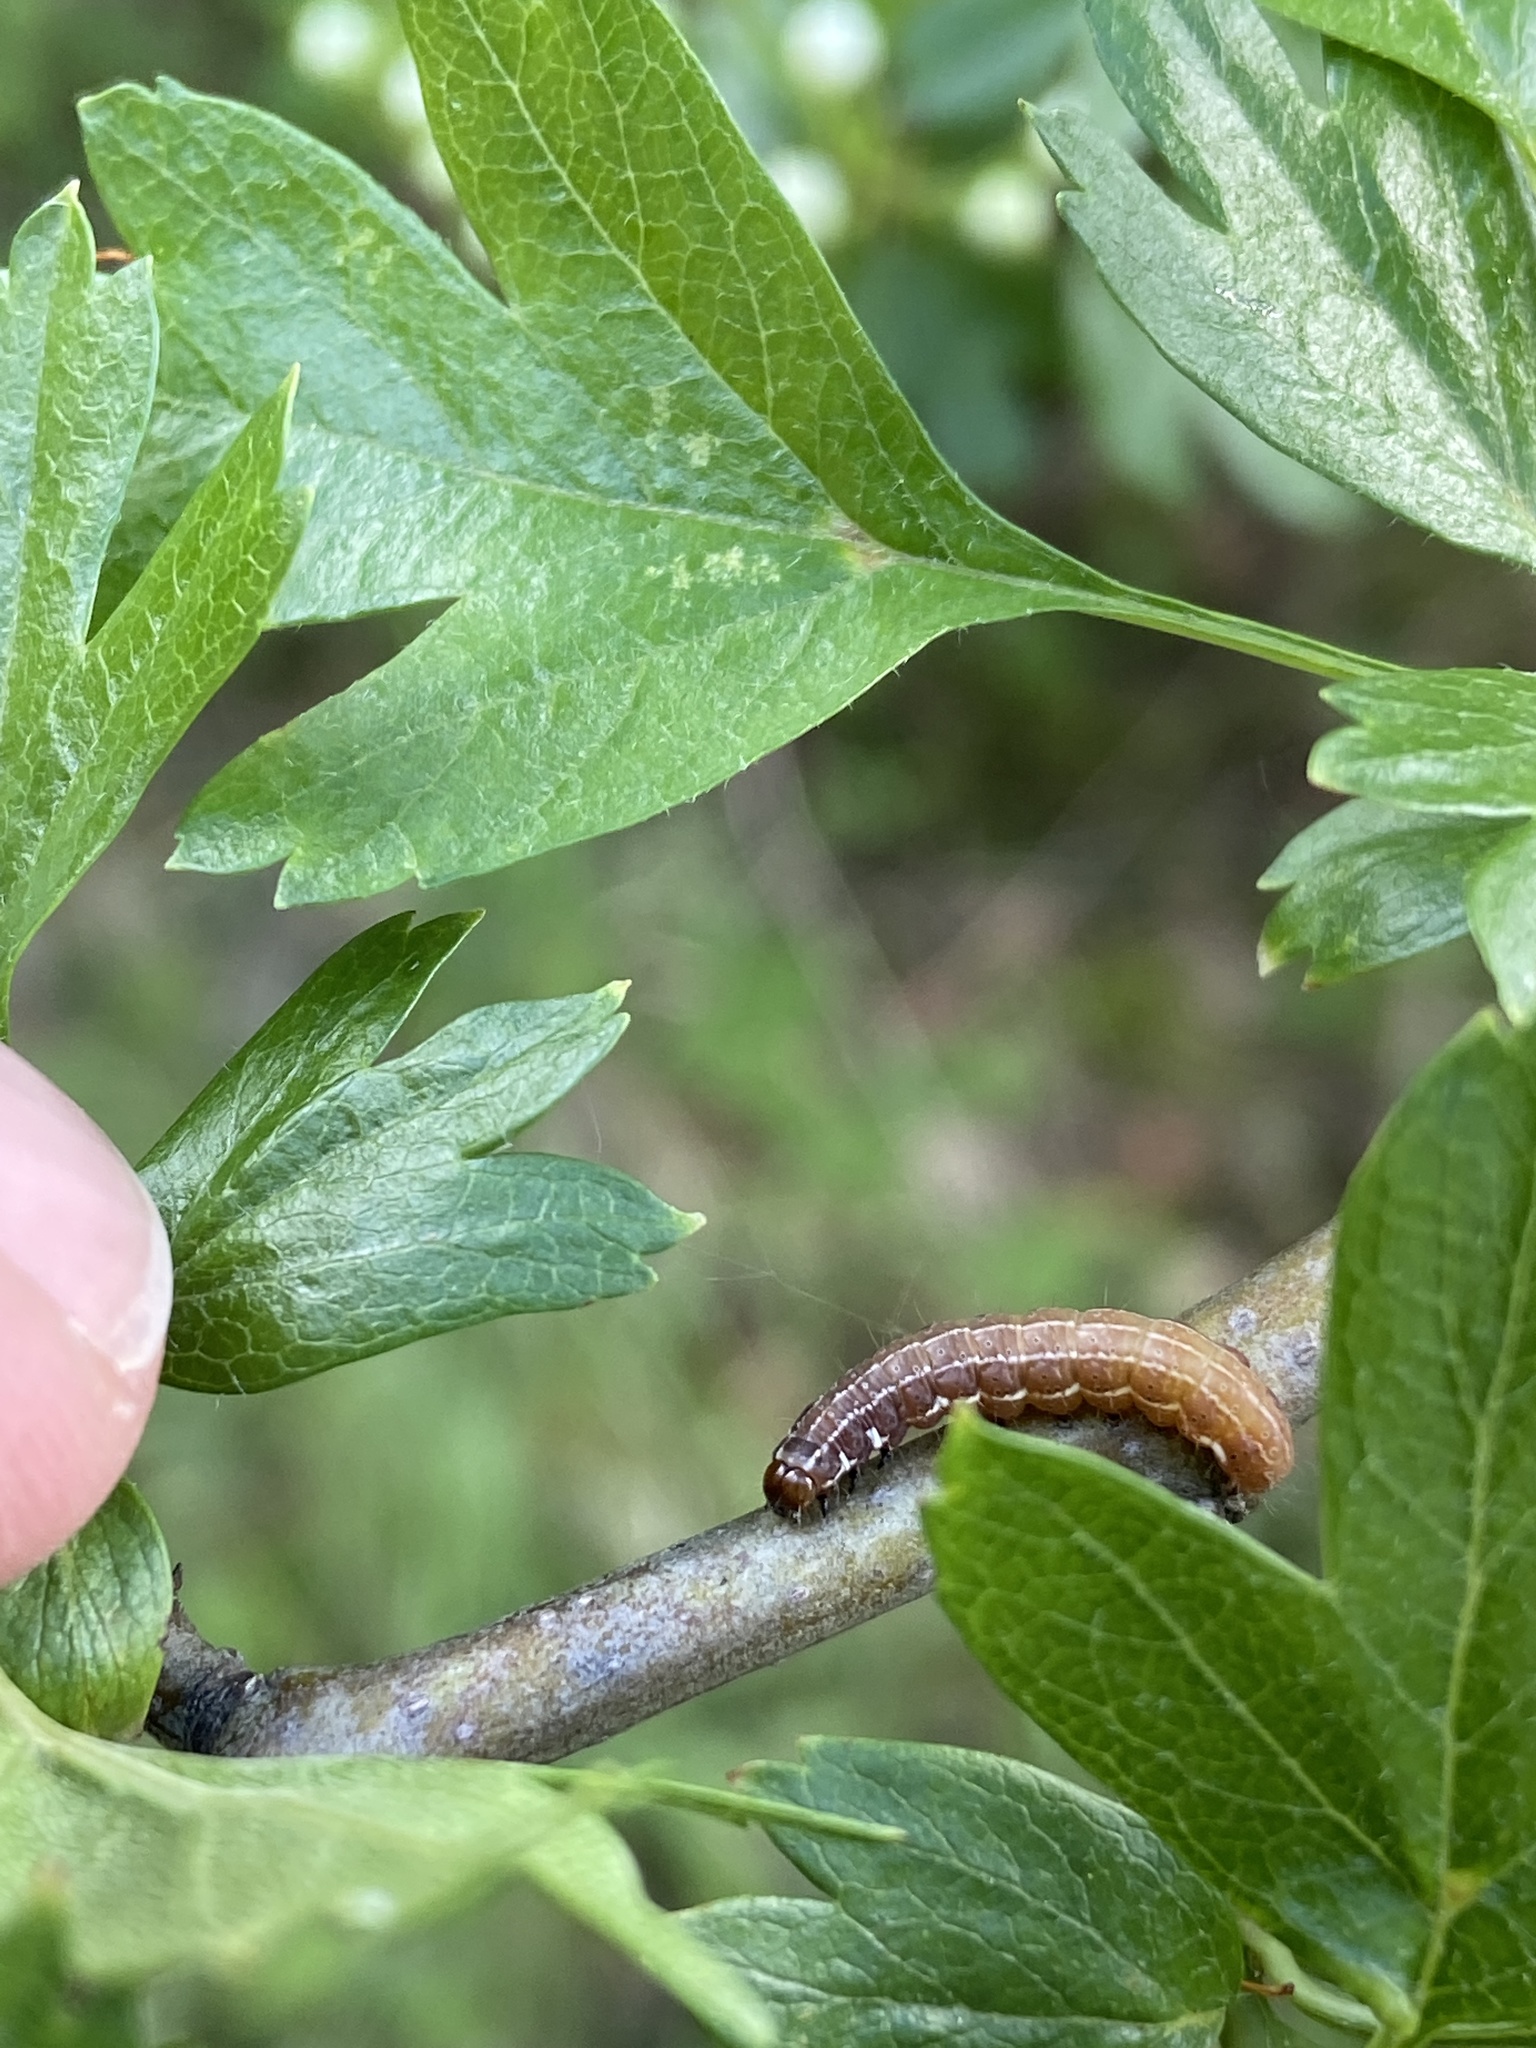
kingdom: Animalia
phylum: Arthropoda
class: Insecta
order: Lepidoptera
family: Noctuidae
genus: Eupsilia
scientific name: Eupsilia transversa
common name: Satellite
